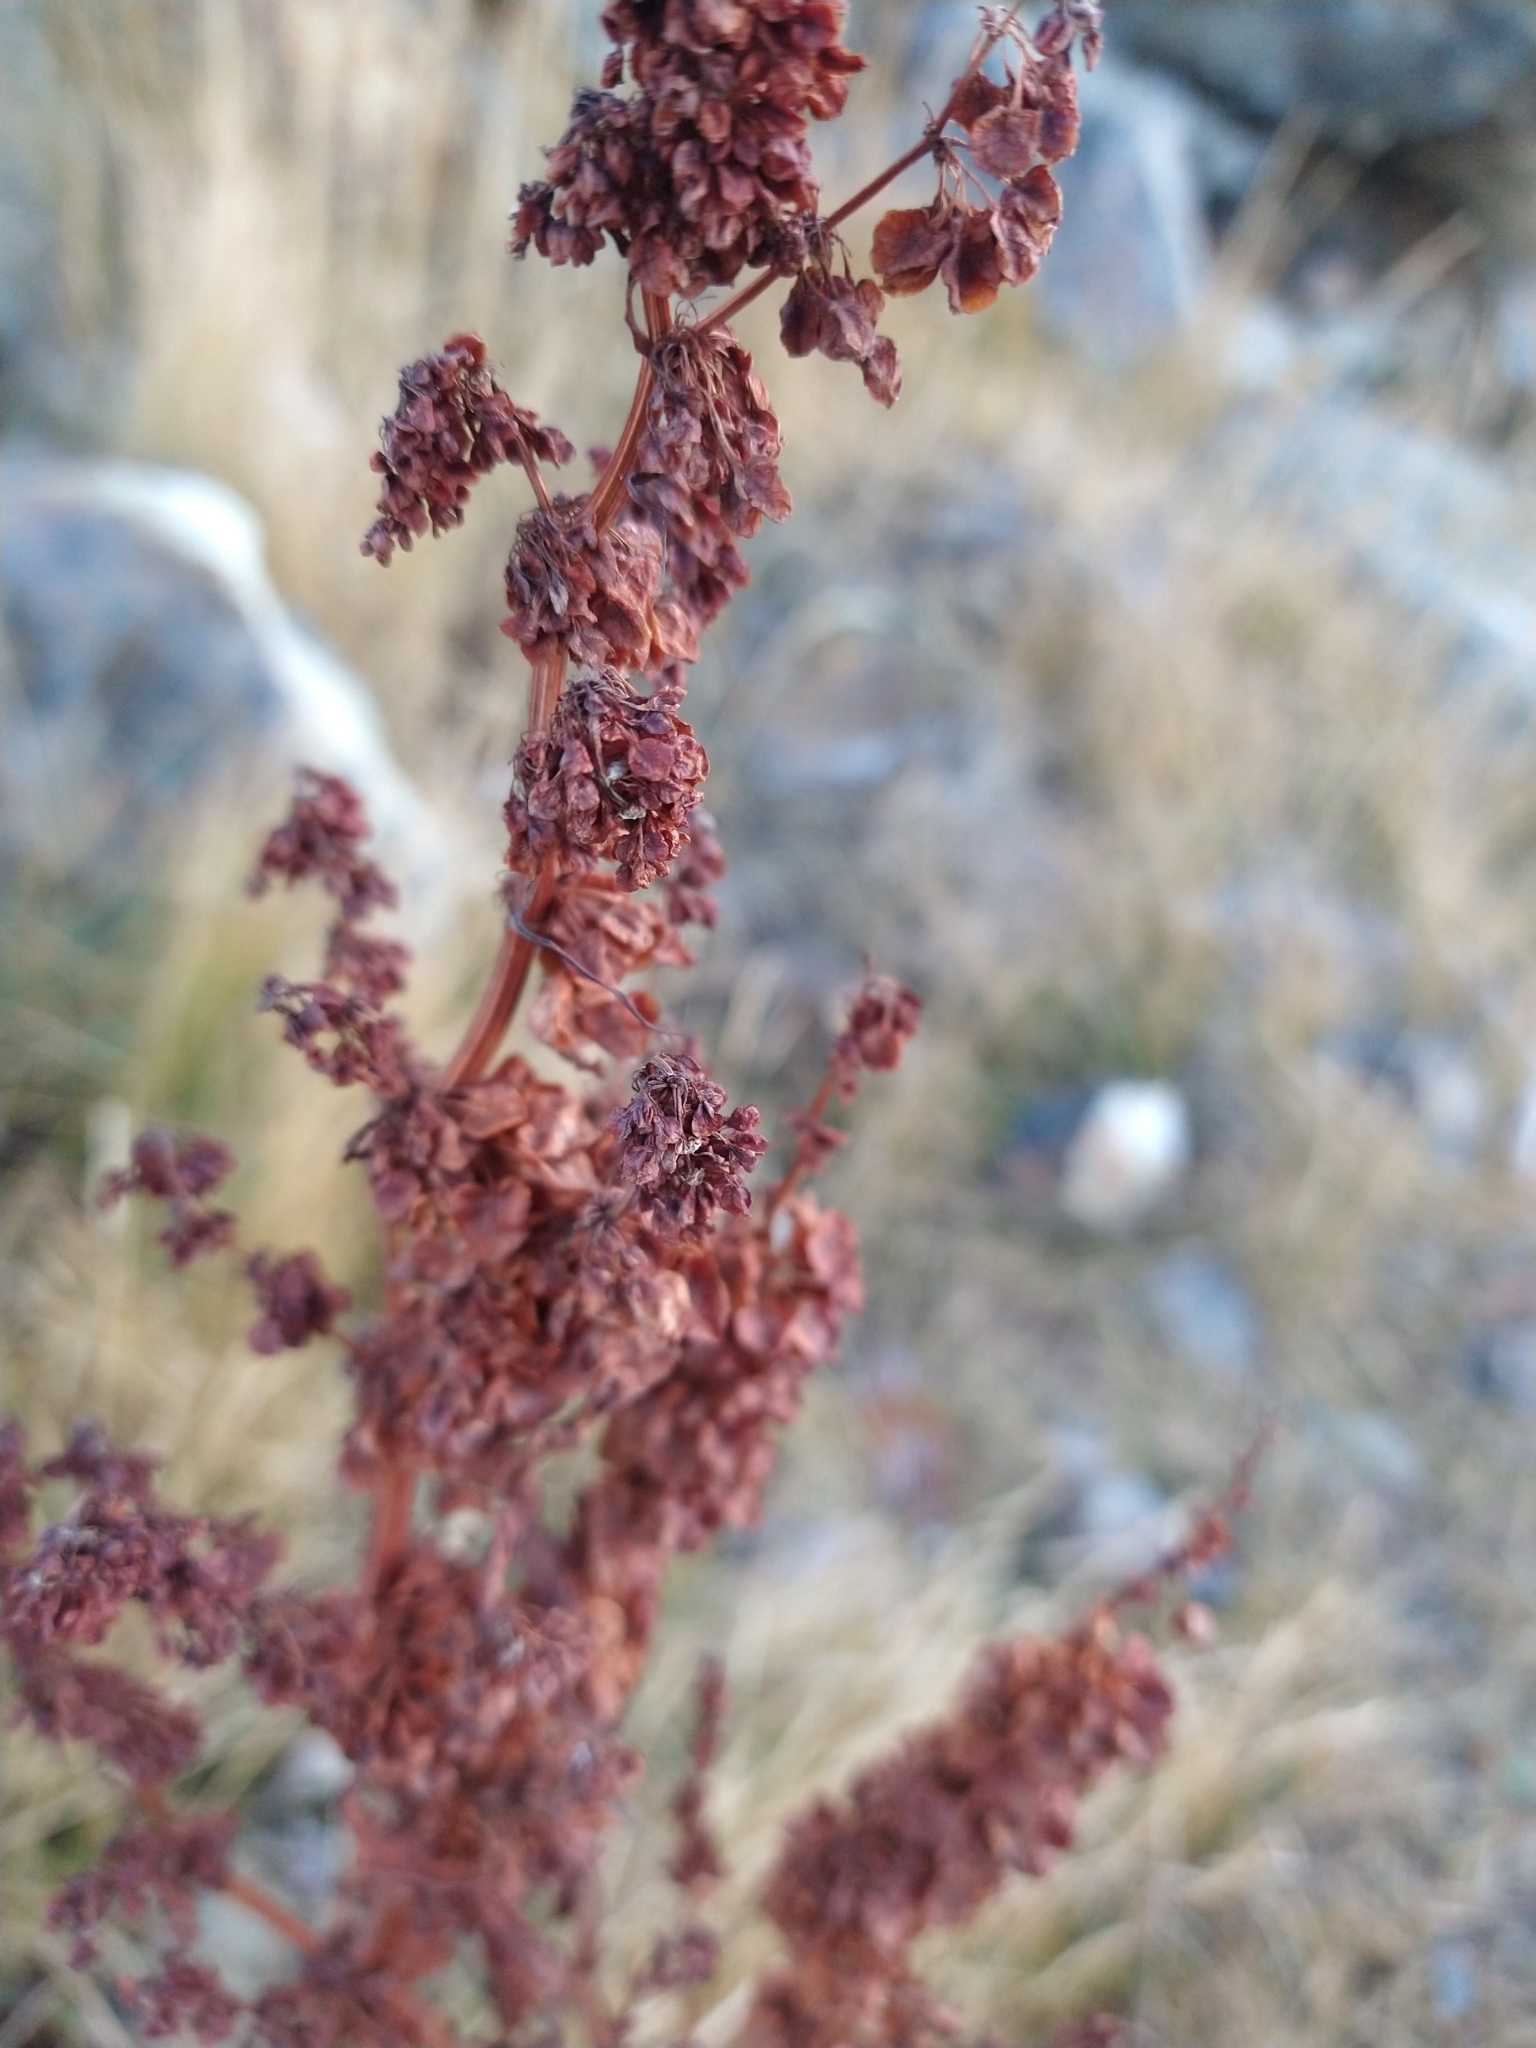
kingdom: Plantae
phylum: Tracheophyta
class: Magnoliopsida
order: Caryophyllales
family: Polygonaceae
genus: Rumex
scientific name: Rumex crispus
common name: Curled dock
